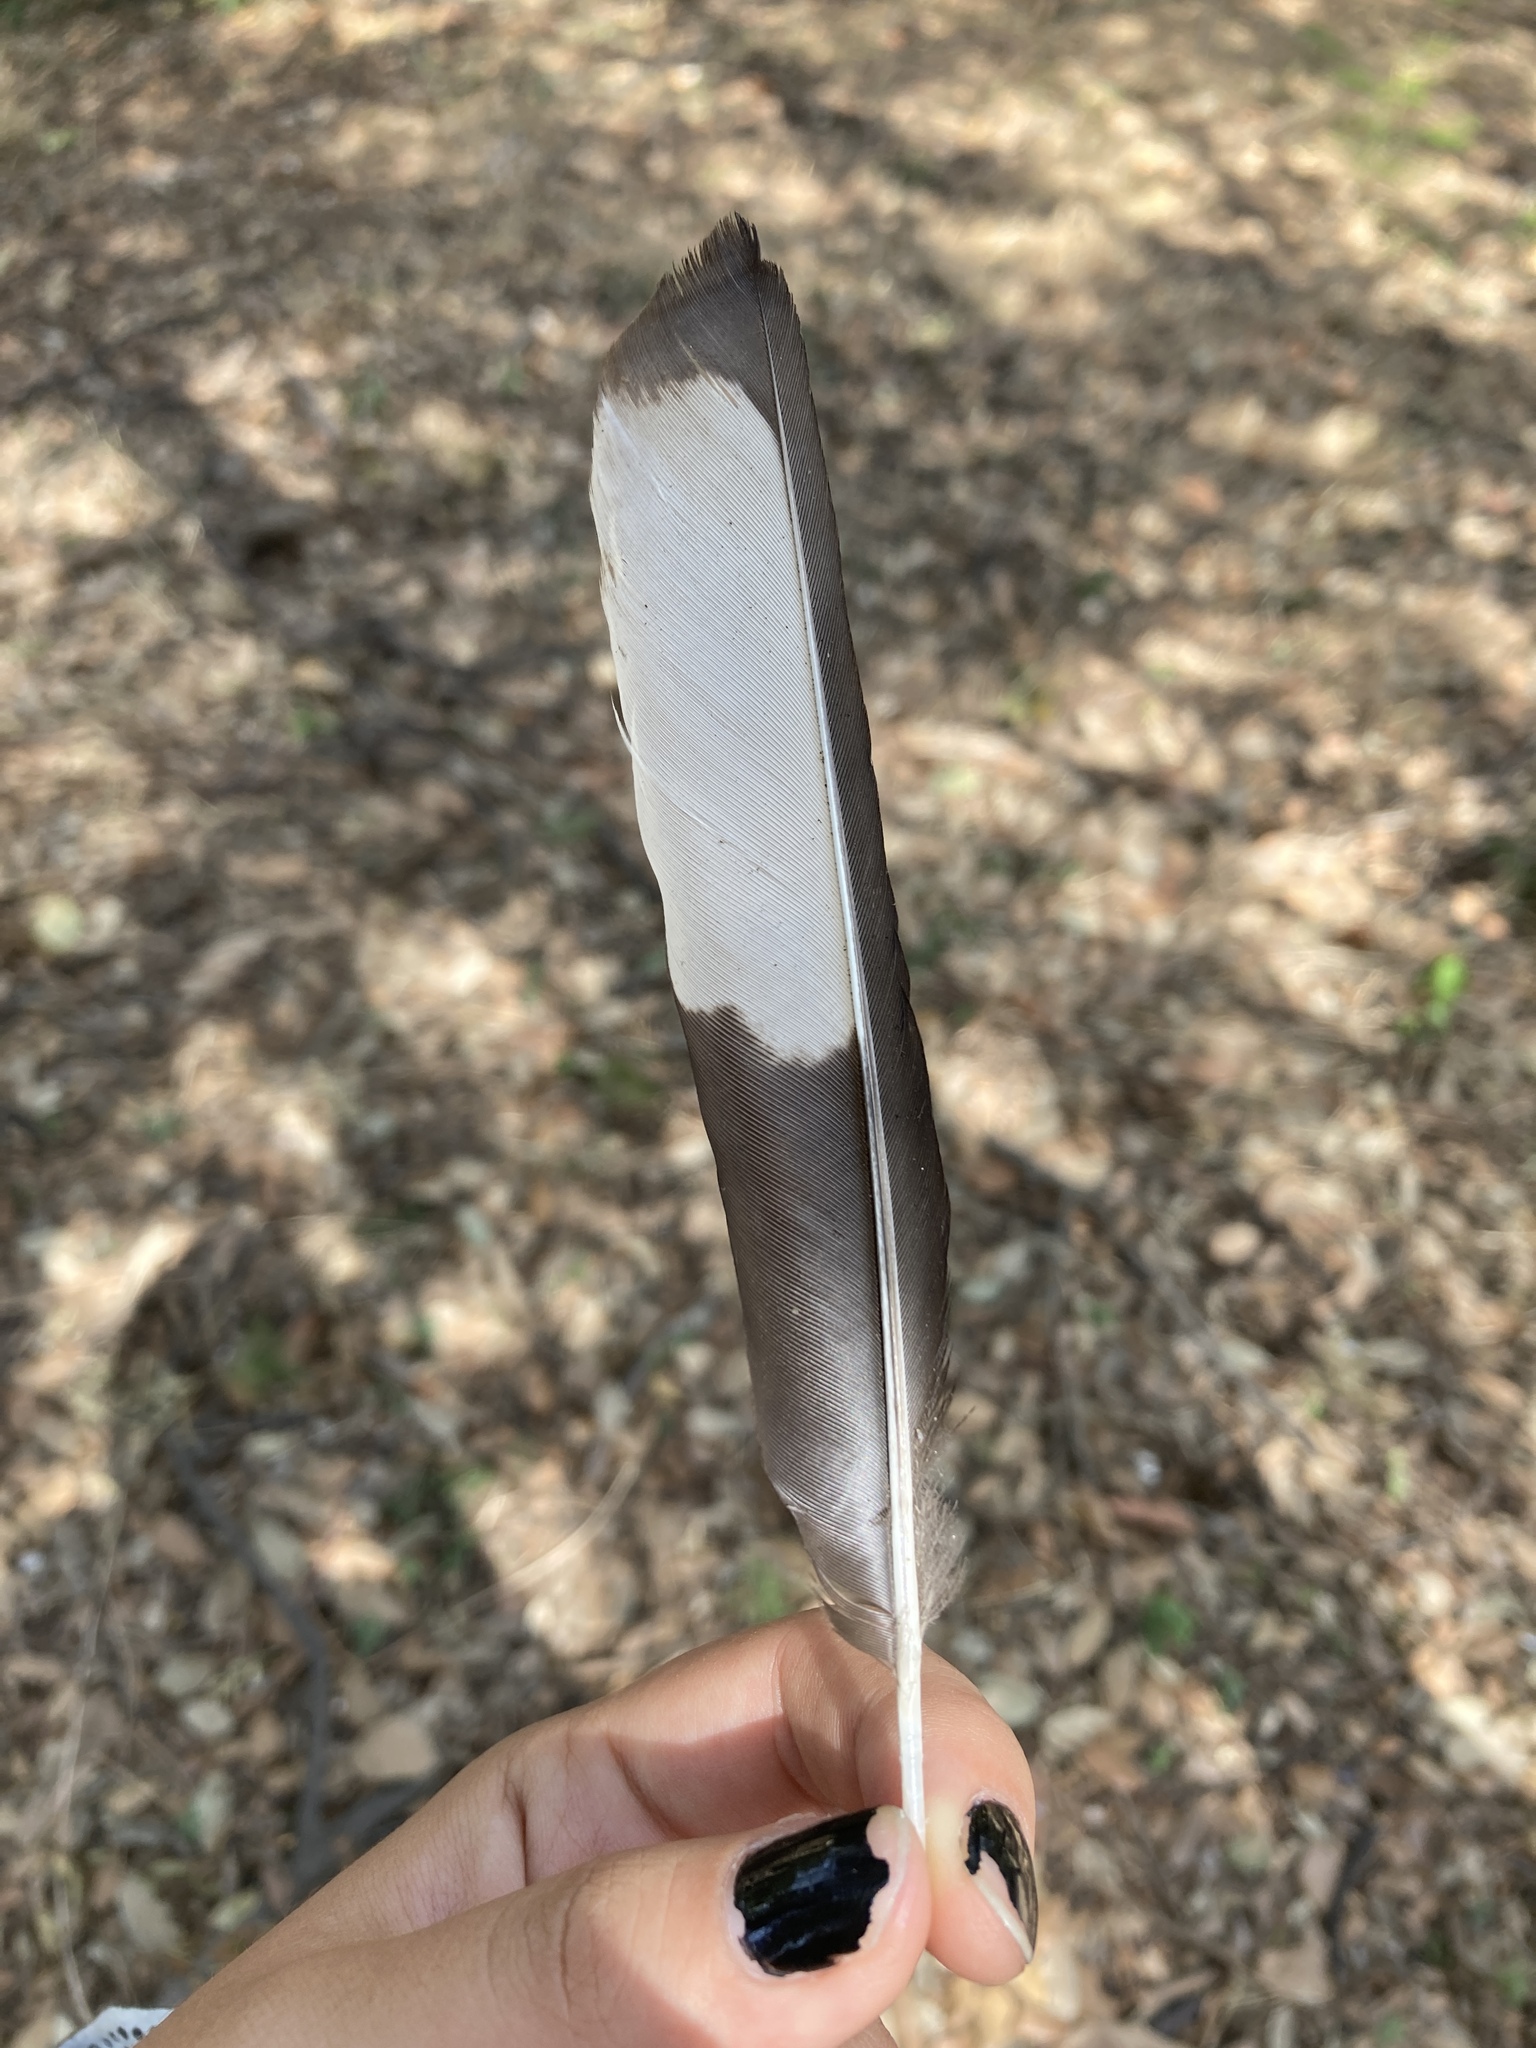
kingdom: Animalia
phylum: Chordata
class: Aves
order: Passeriformes
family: Corvidae
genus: Pica
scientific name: Pica pica
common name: Eurasian magpie
